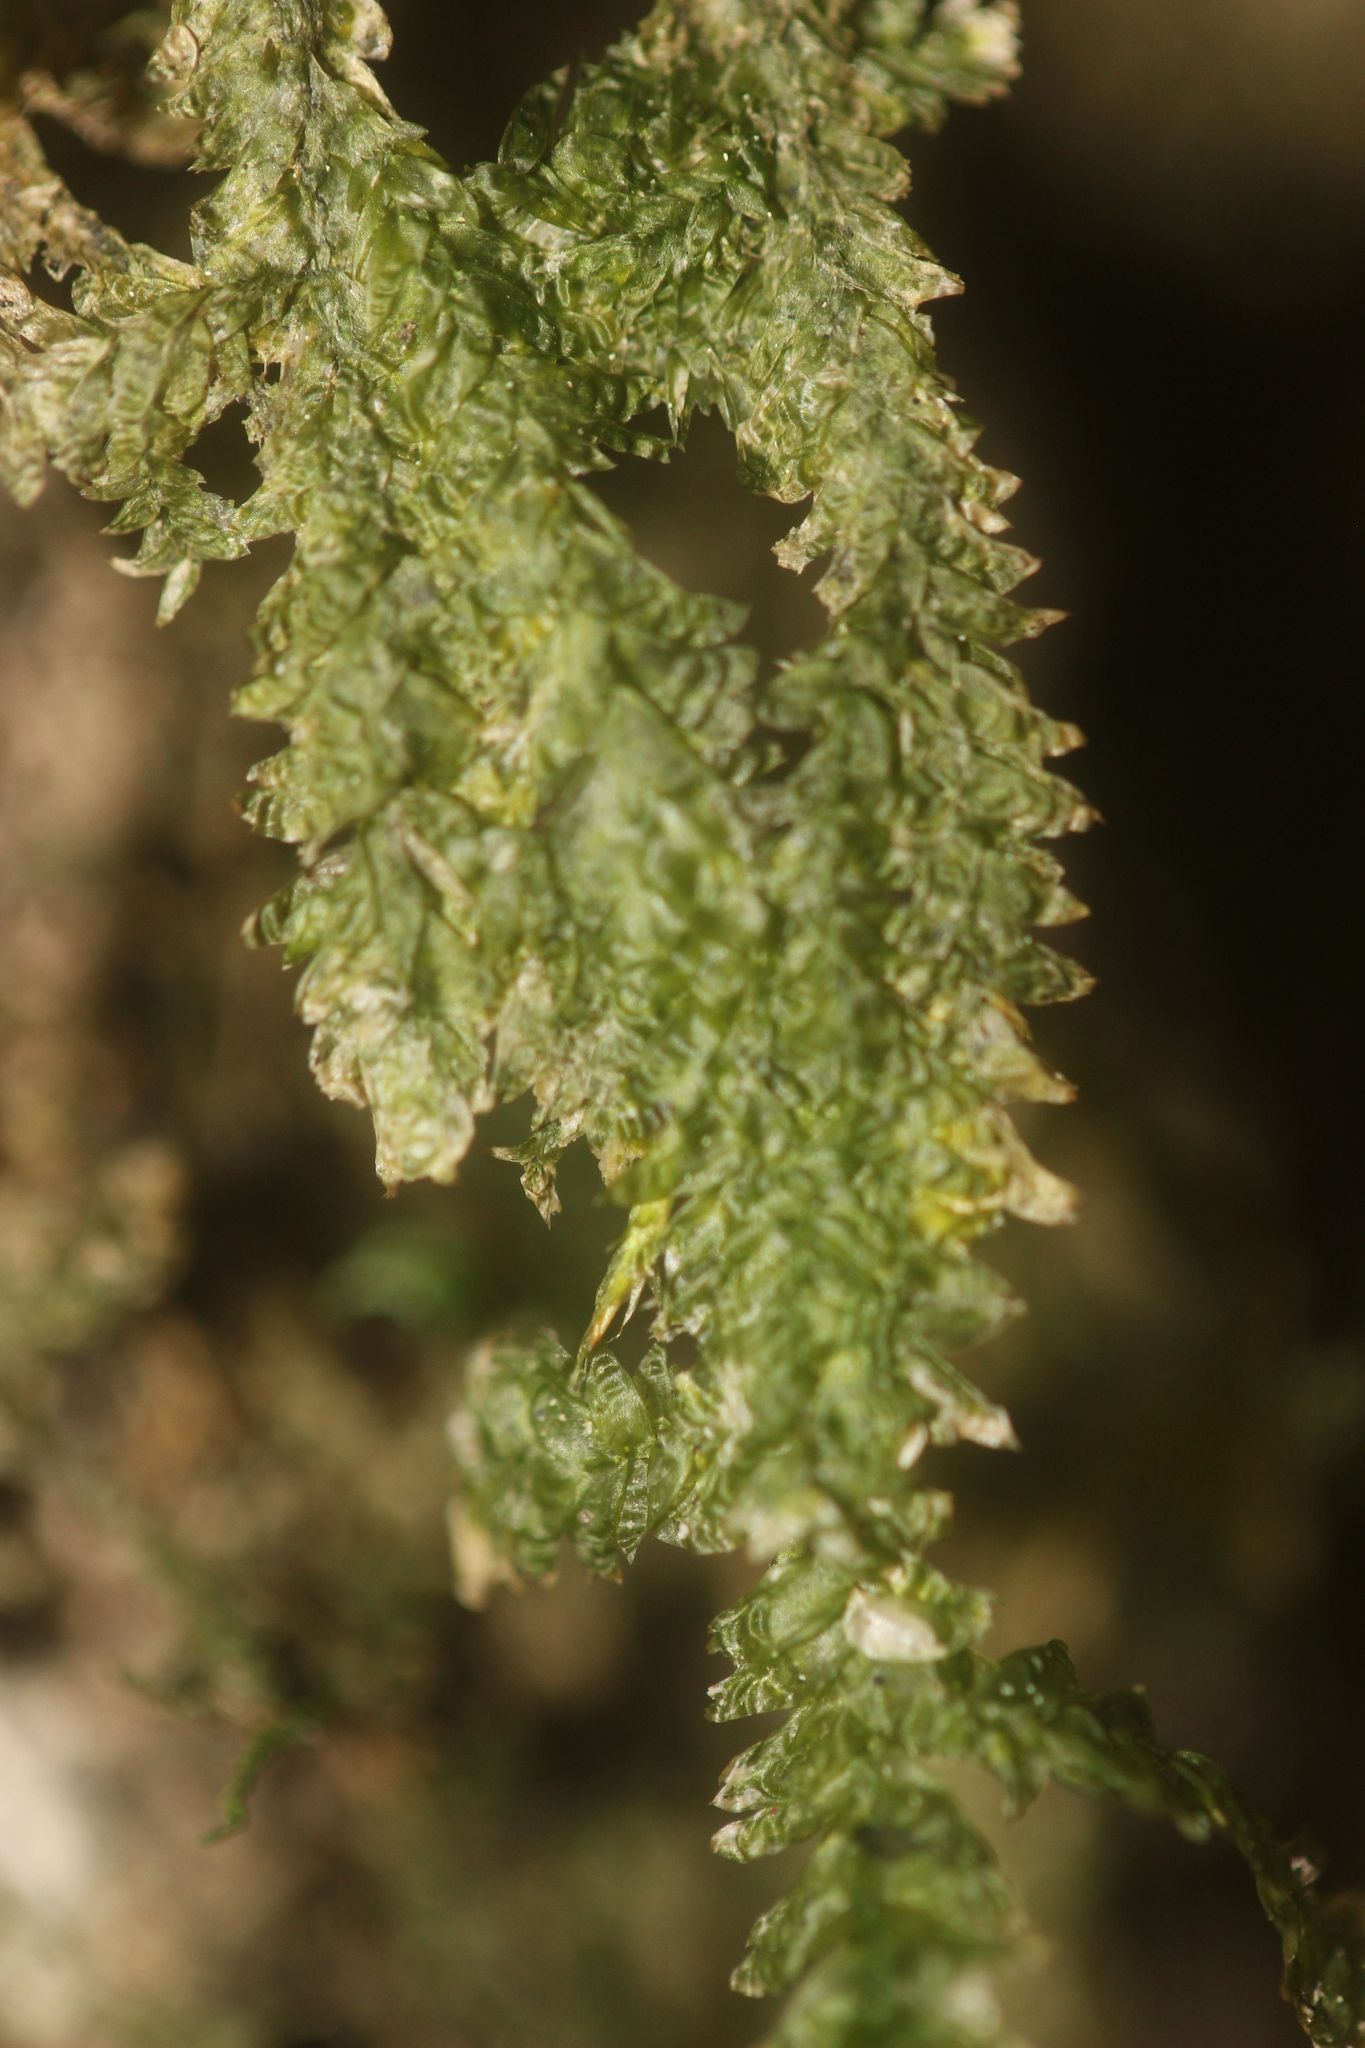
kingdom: Plantae
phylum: Bryophyta
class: Bryopsida
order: Hypnales
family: Neckeraceae
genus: Alleniella
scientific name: Alleniella hymenodonta
